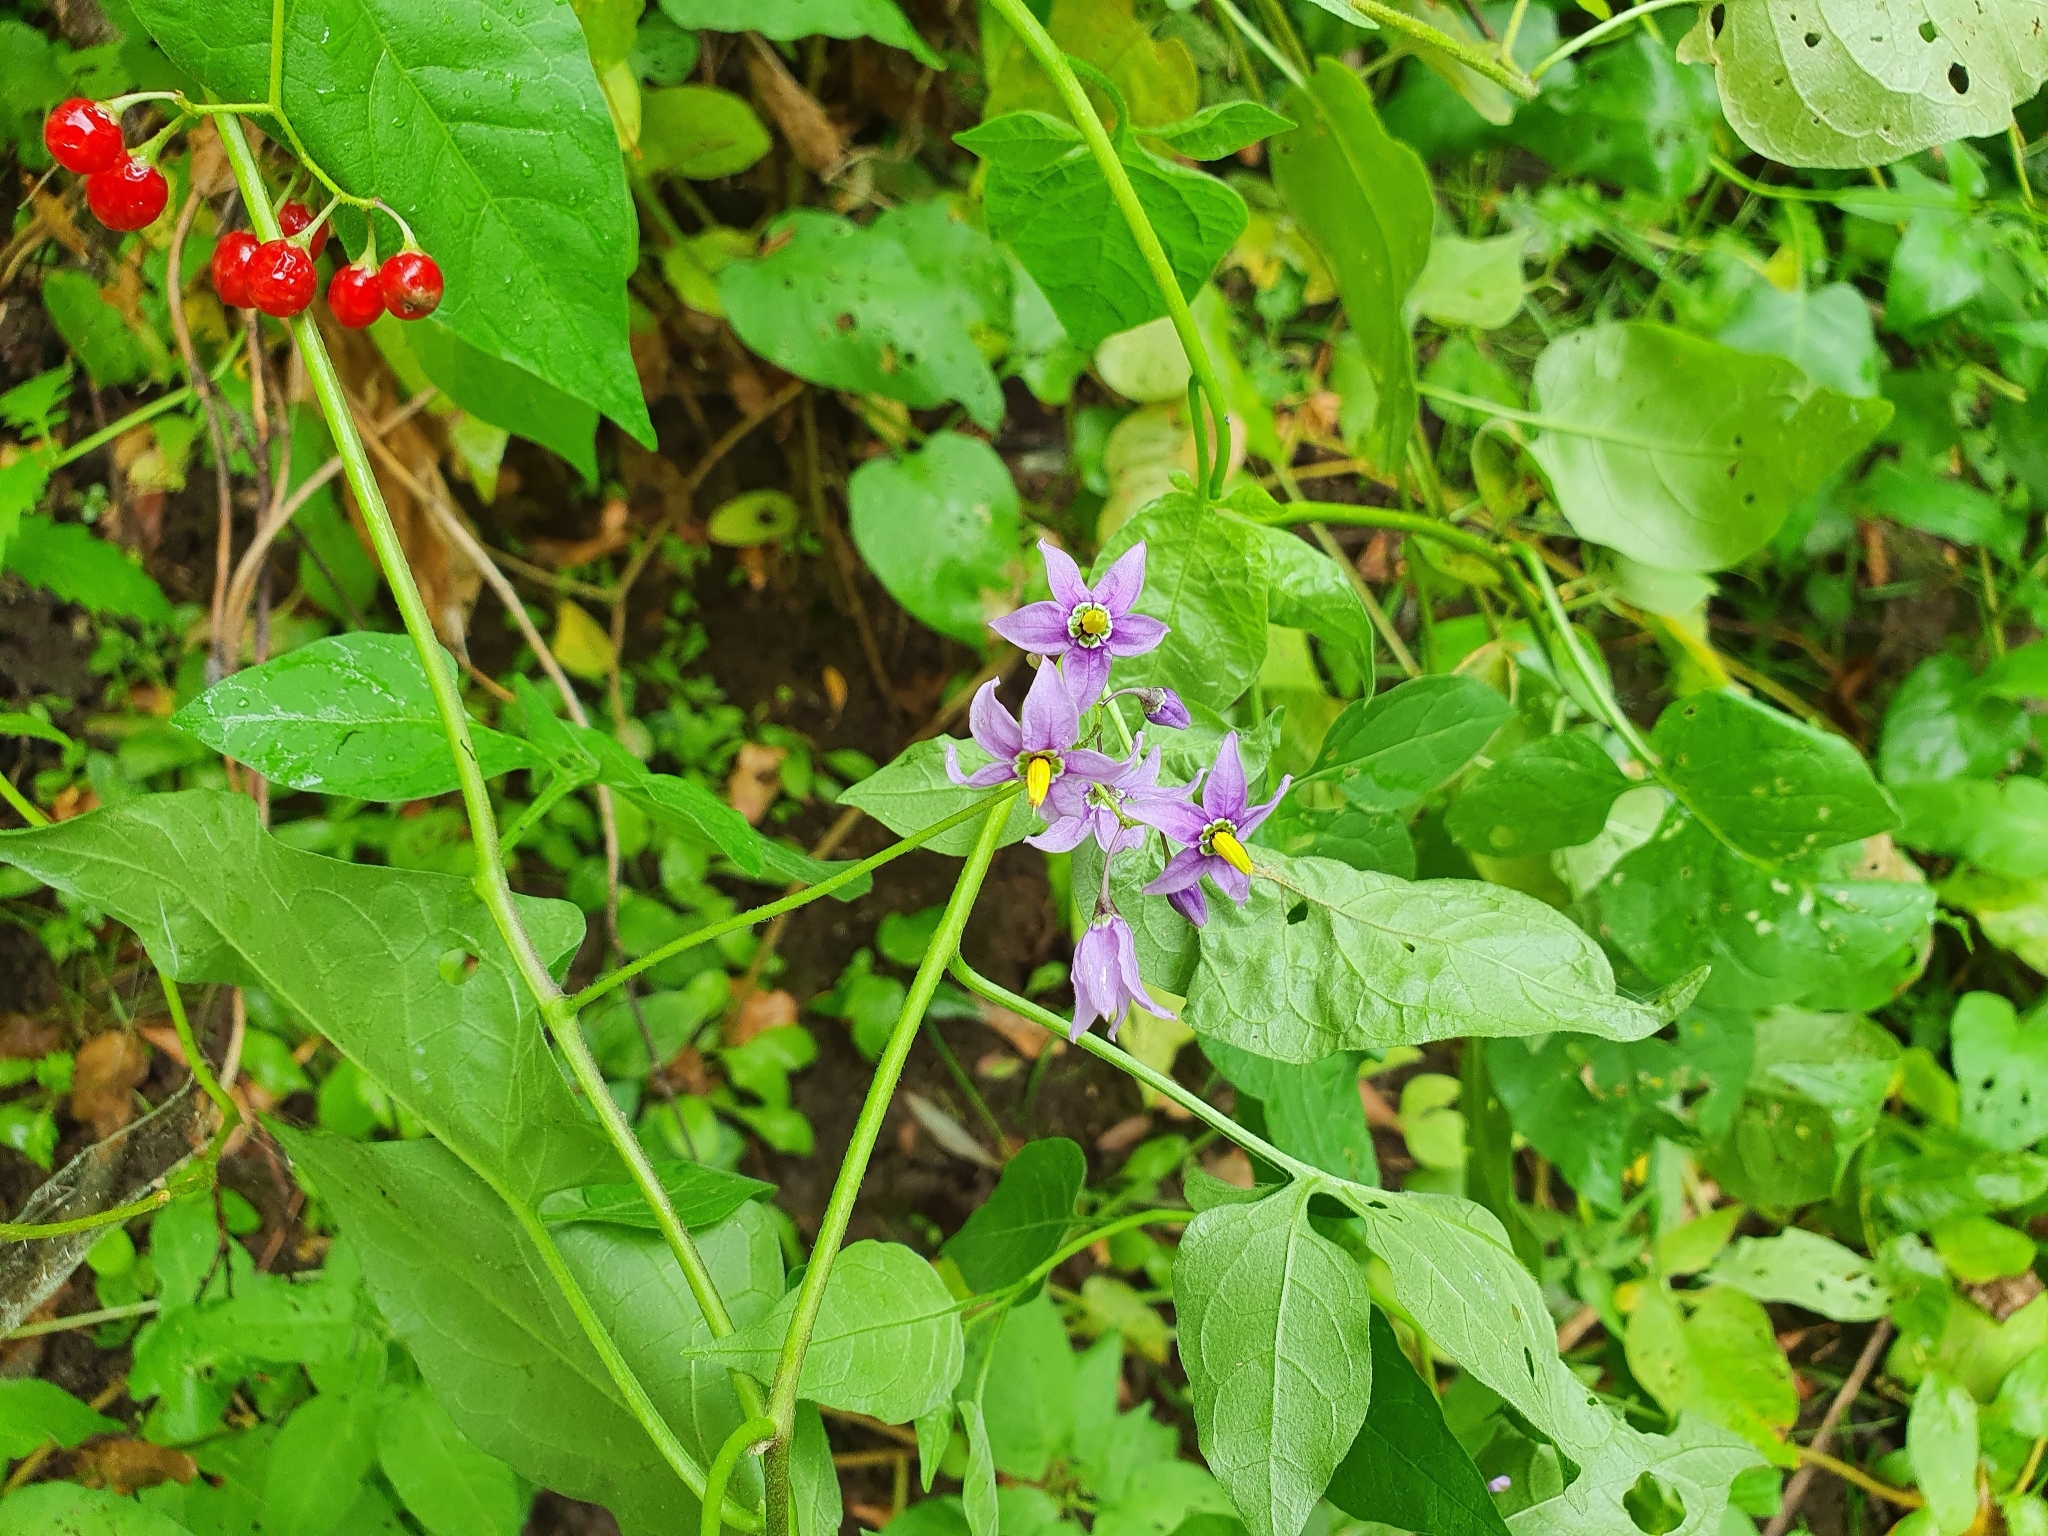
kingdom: Plantae
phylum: Tracheophyta
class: Magnoliopsida
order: Solanales
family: Solanaceae
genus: Solanum
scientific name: Solanum dulcamara
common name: Climbing nightshade
